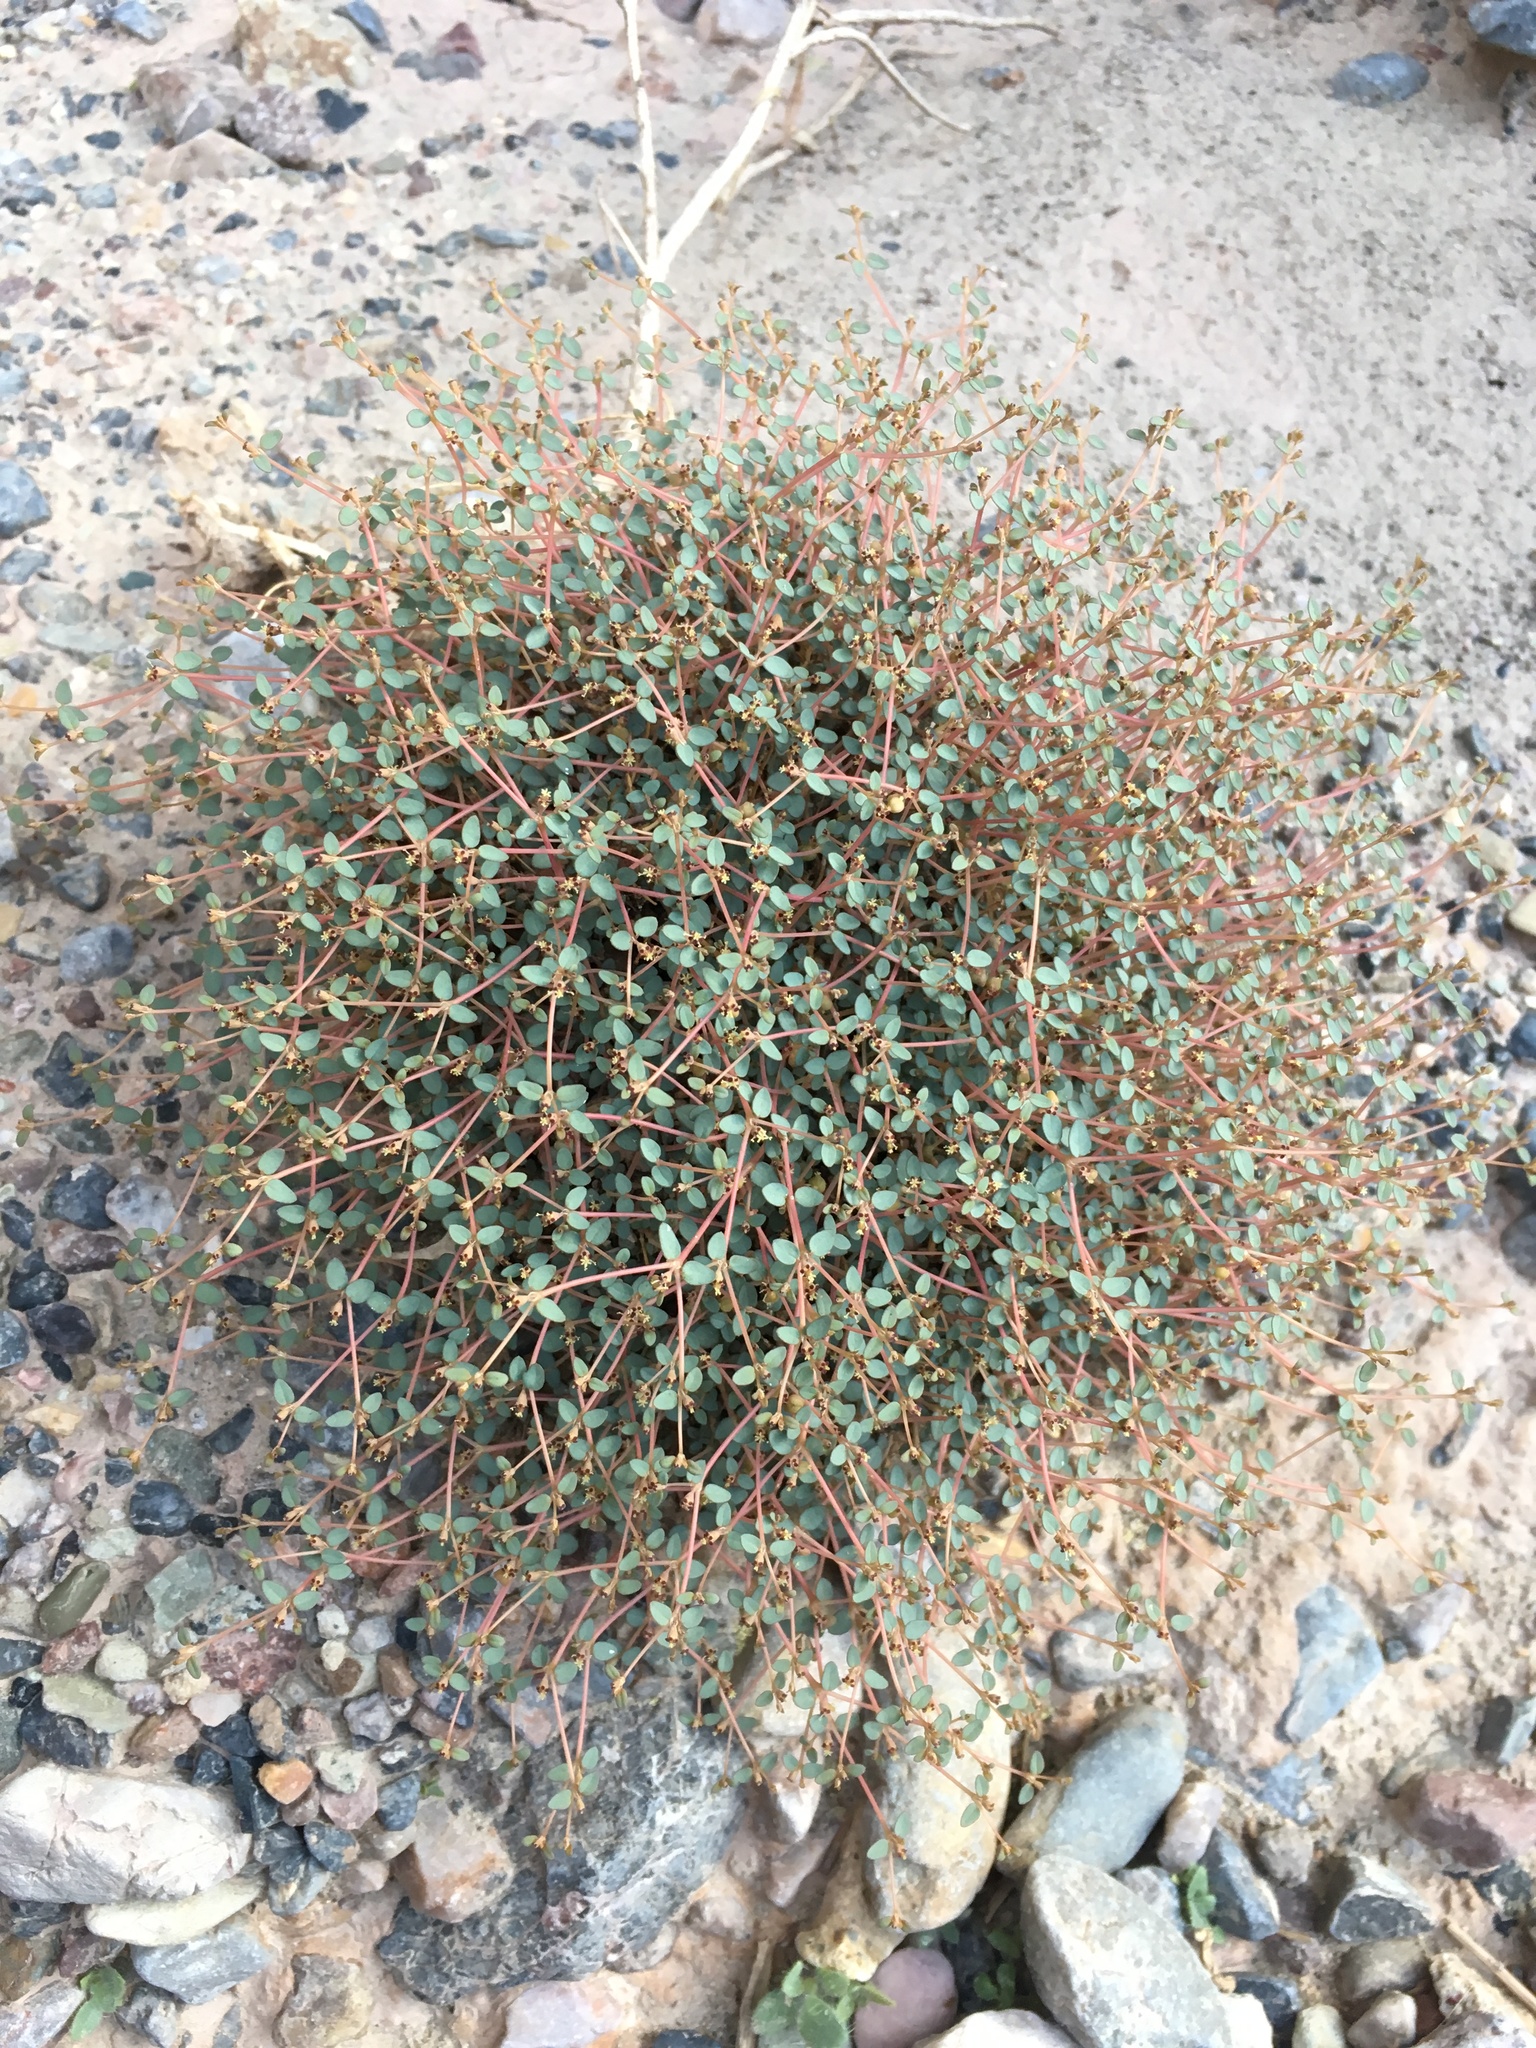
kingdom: Plantae
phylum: Tracheophyta
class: Magnoliopsida
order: Malpighiales
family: Euphorbiaceae
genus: Euphorbia
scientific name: Euphorbia parishii
